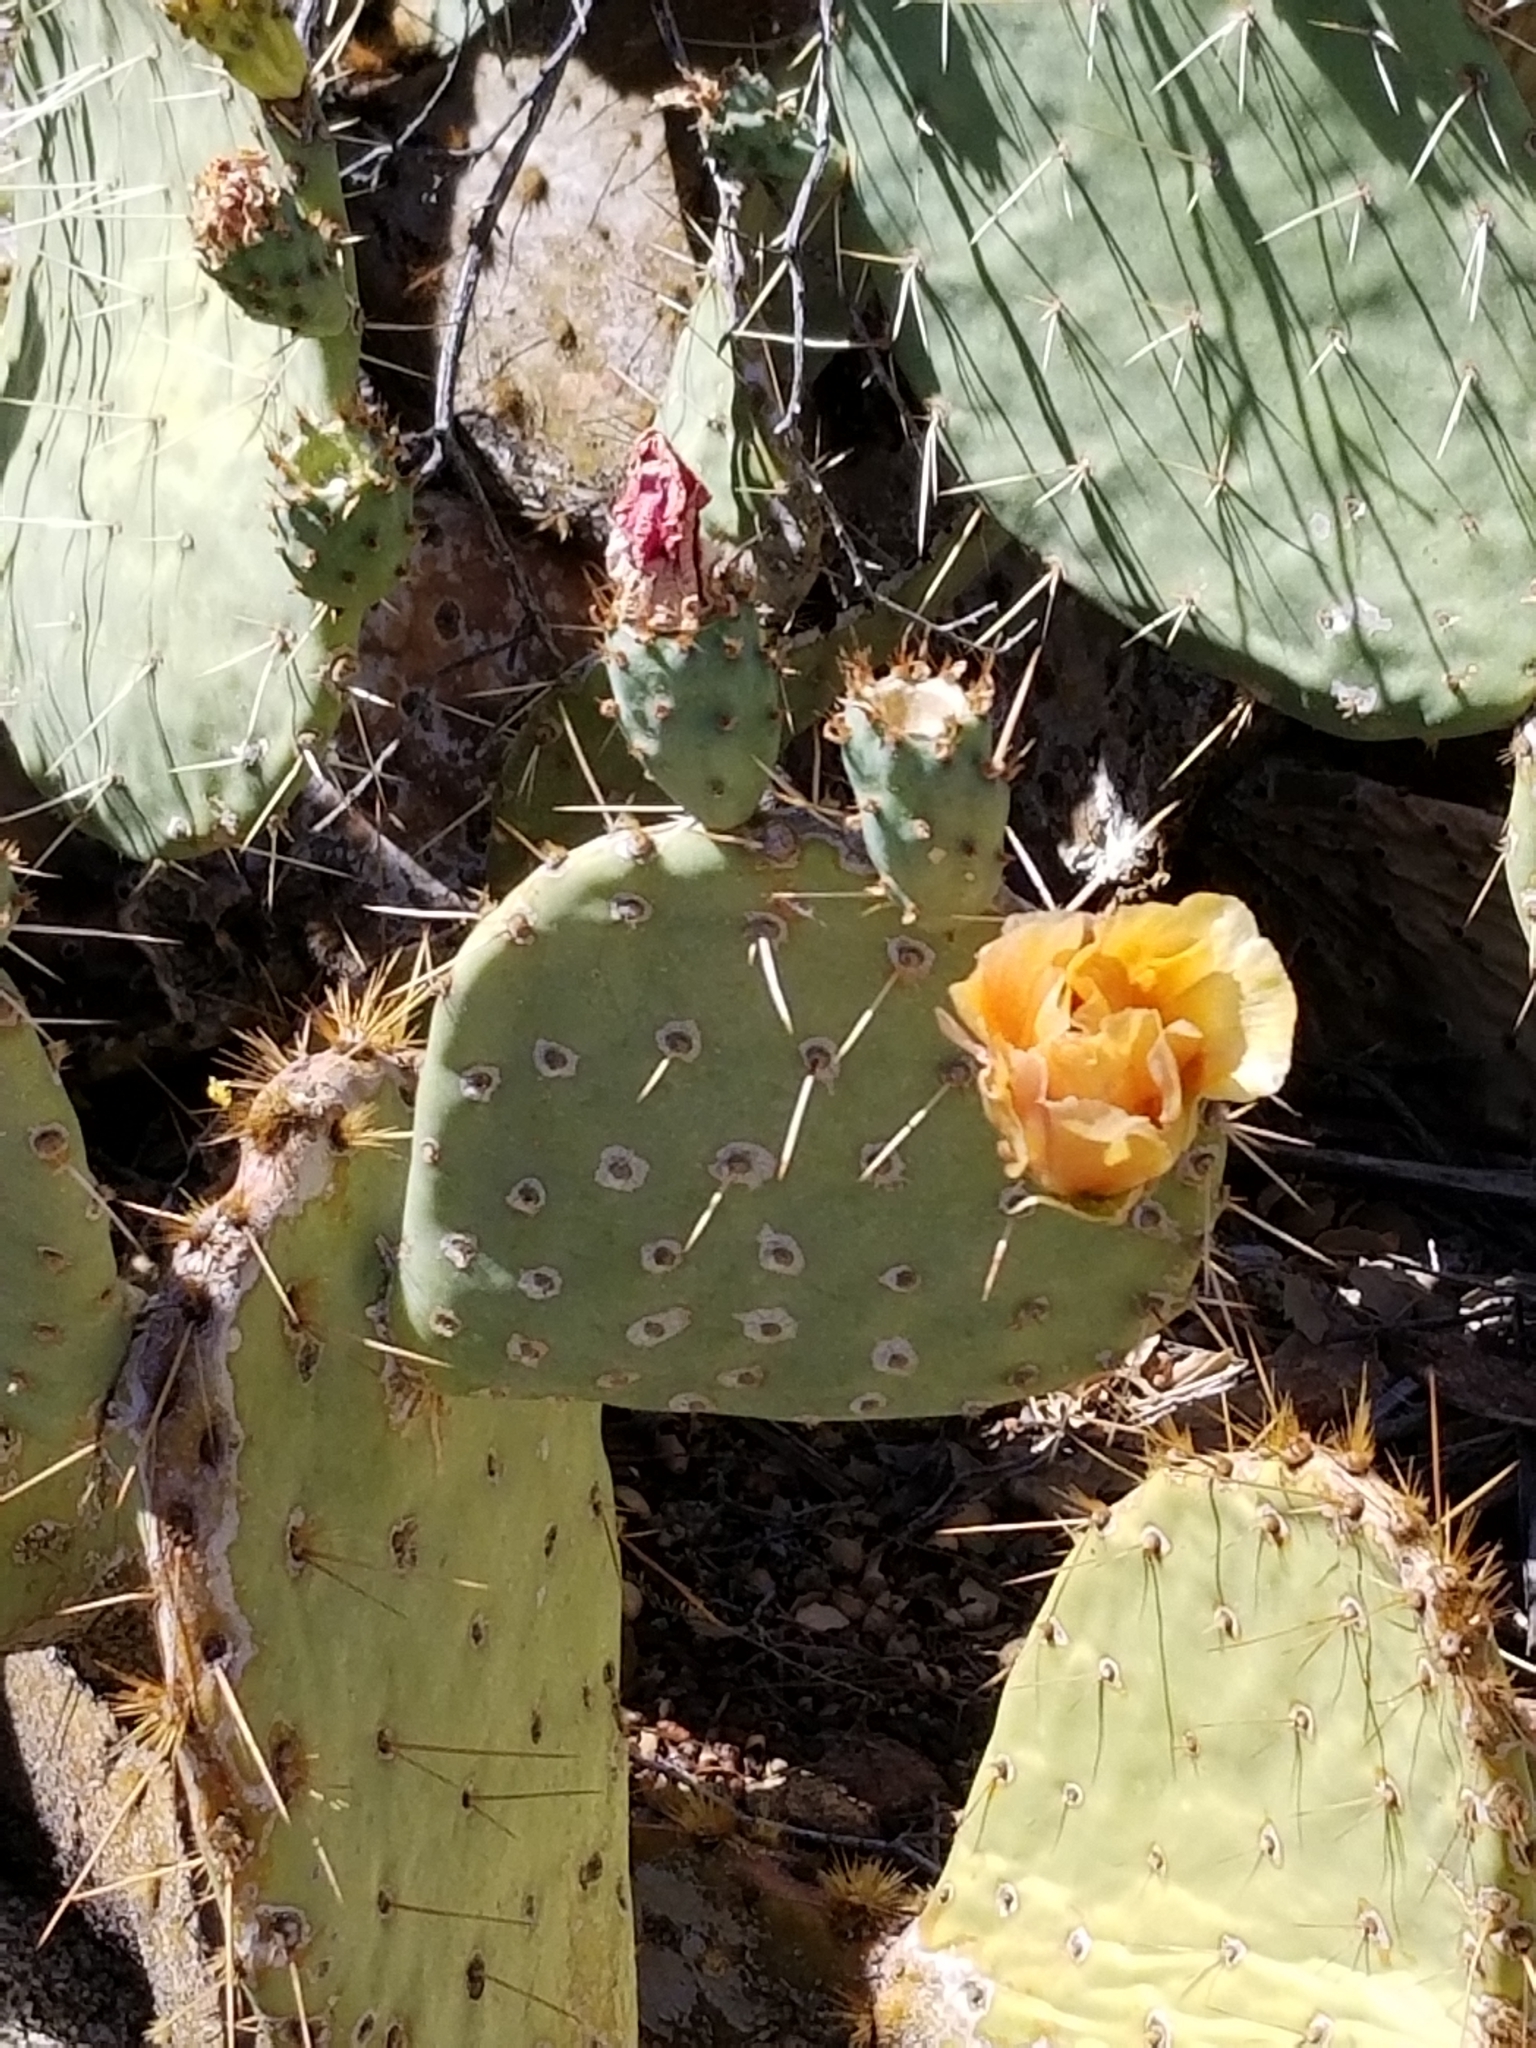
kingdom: Plantae
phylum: Tracheophyta
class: Magnoliopsida
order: Caryophyllales
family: Cactaceae
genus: Opuntia
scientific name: Opuntia orbiculata
